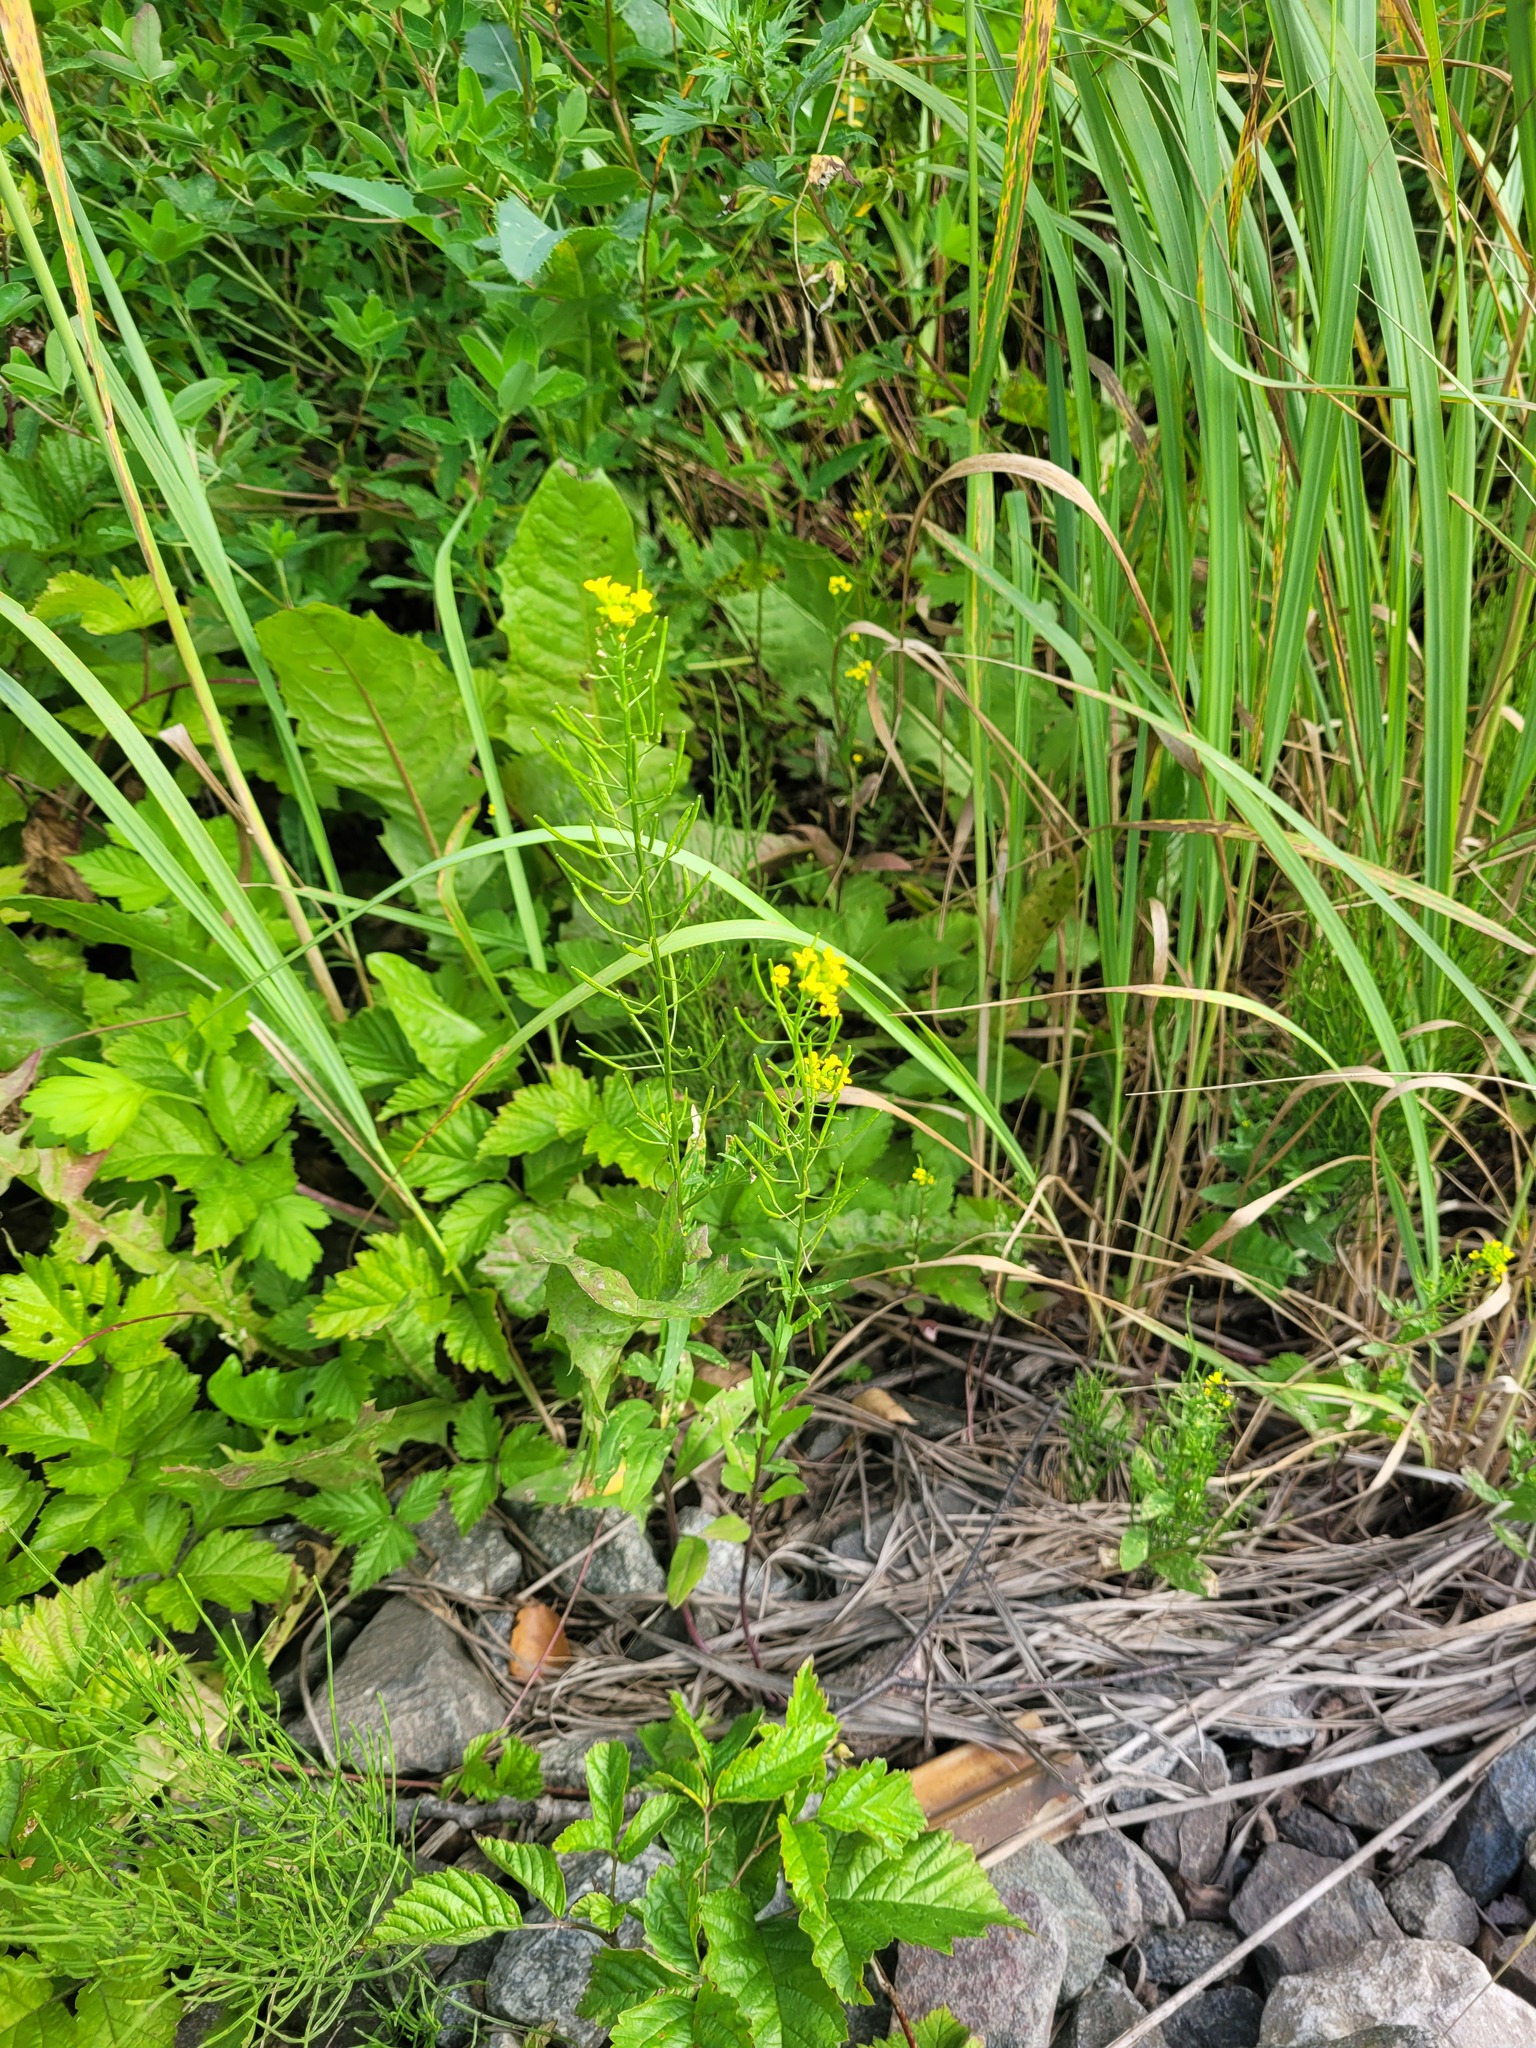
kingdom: Plantae
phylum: Tracheophyta
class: Magnoliopsida
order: Brassicales
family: Brassicaceae
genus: Erysimum
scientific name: Erysimum cheiranthoides
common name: Treacle mustard
